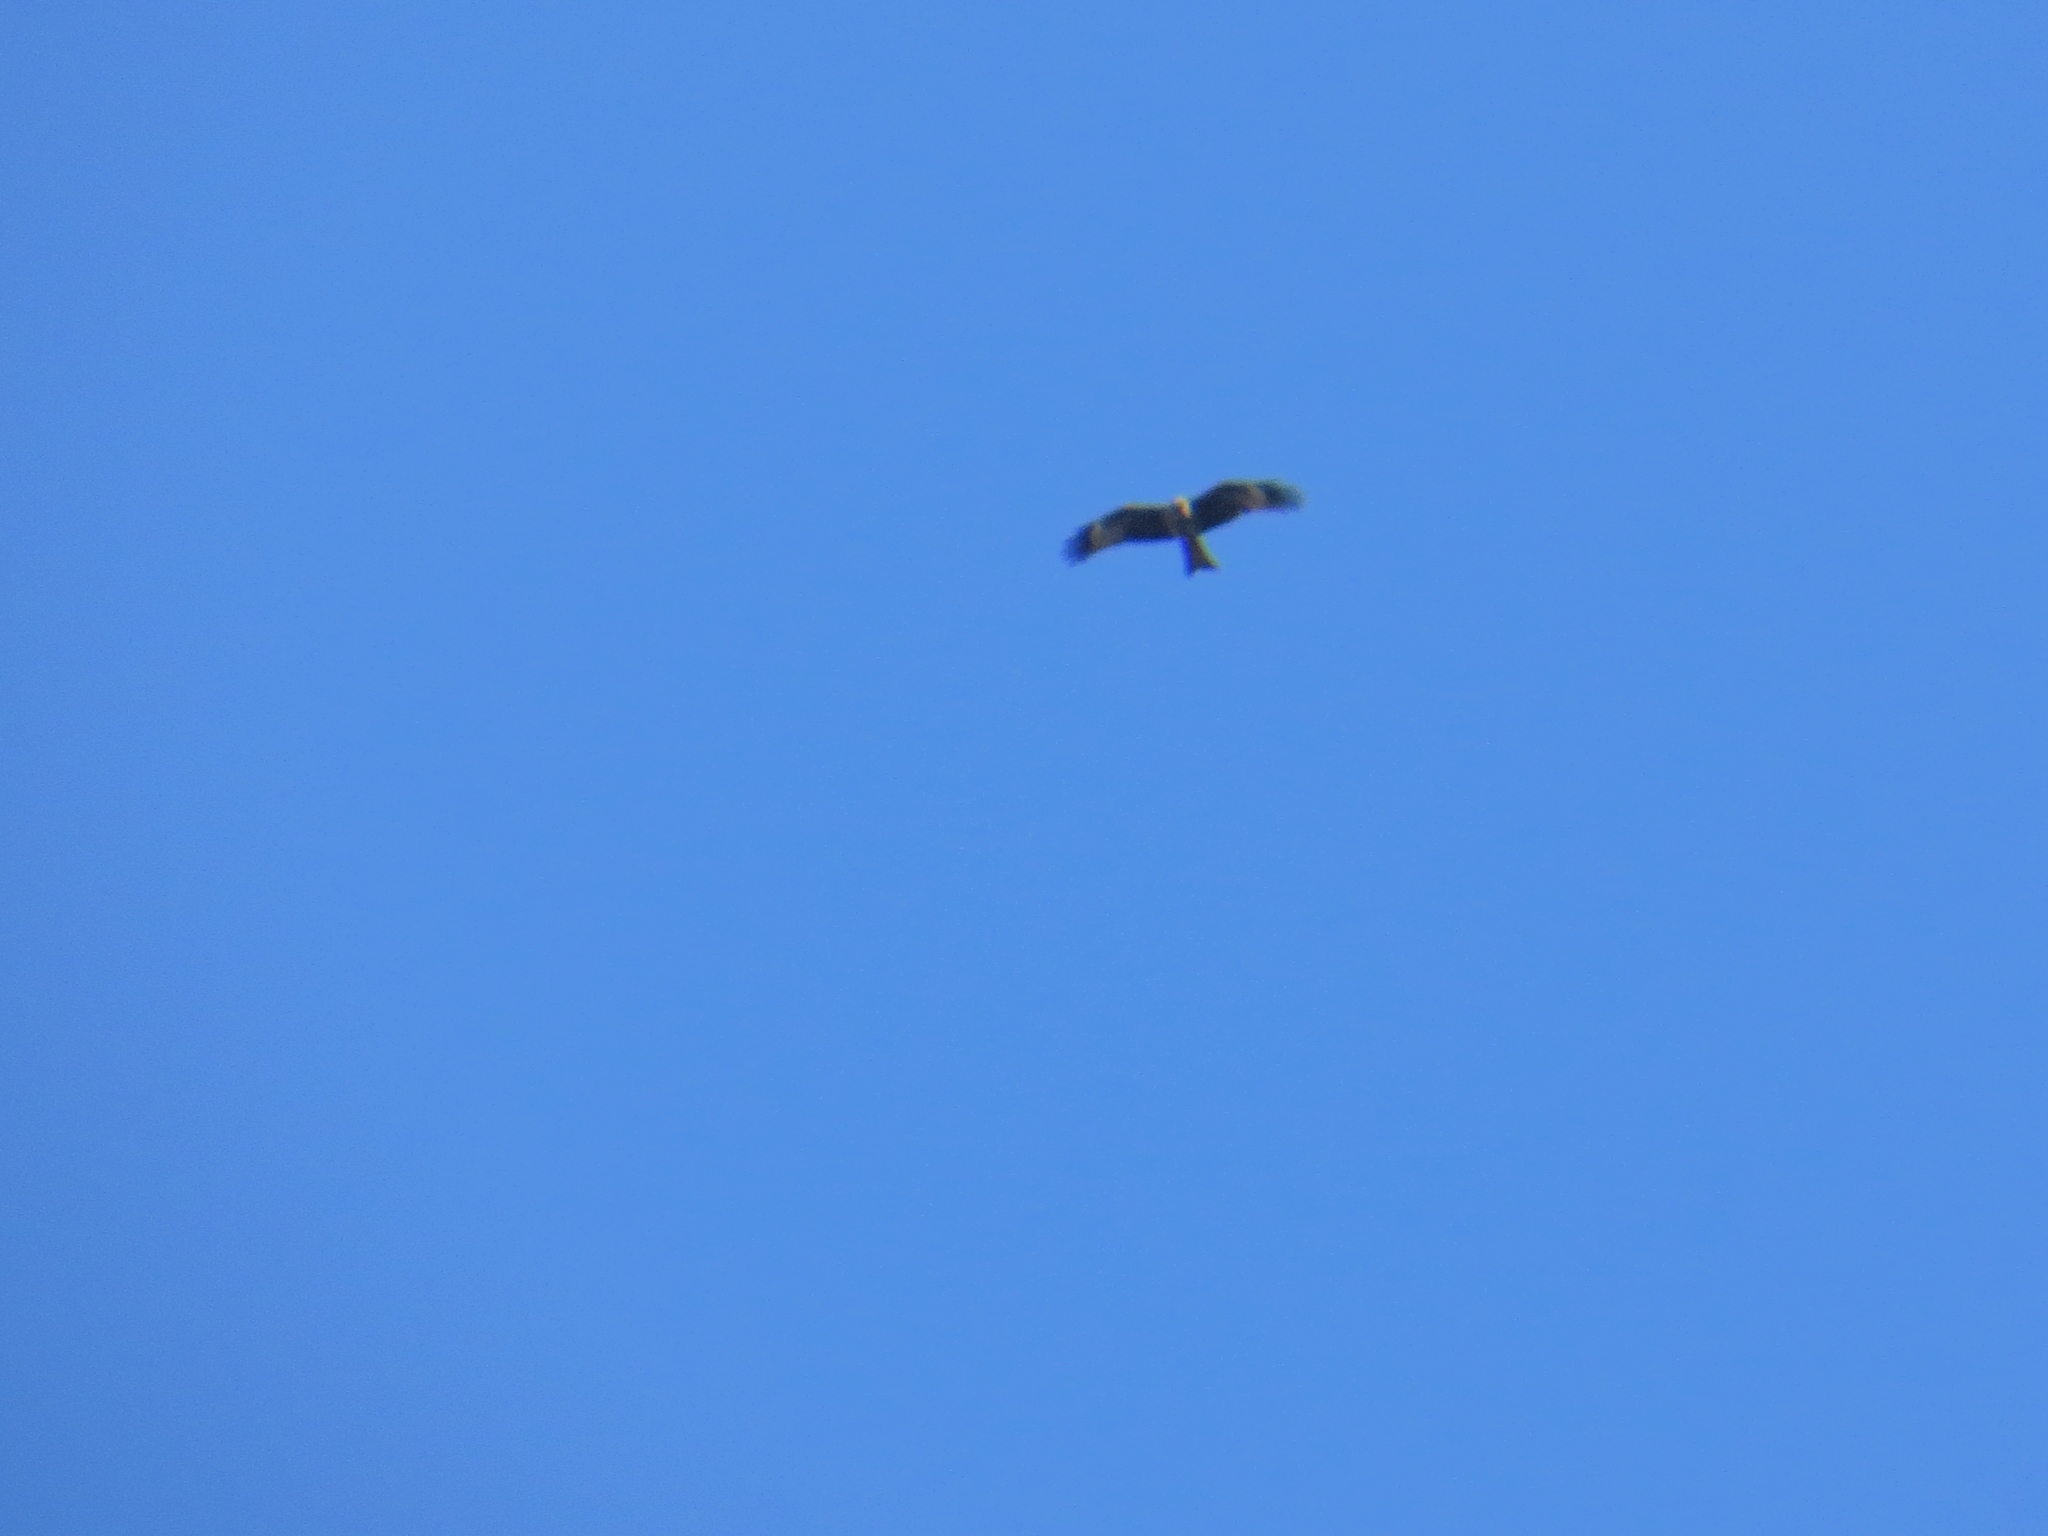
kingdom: Animalia
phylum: Chordata
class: Aves
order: Accipitriformes
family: Accipitridae
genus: Milvus
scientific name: Milvus migrans
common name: Black kite
